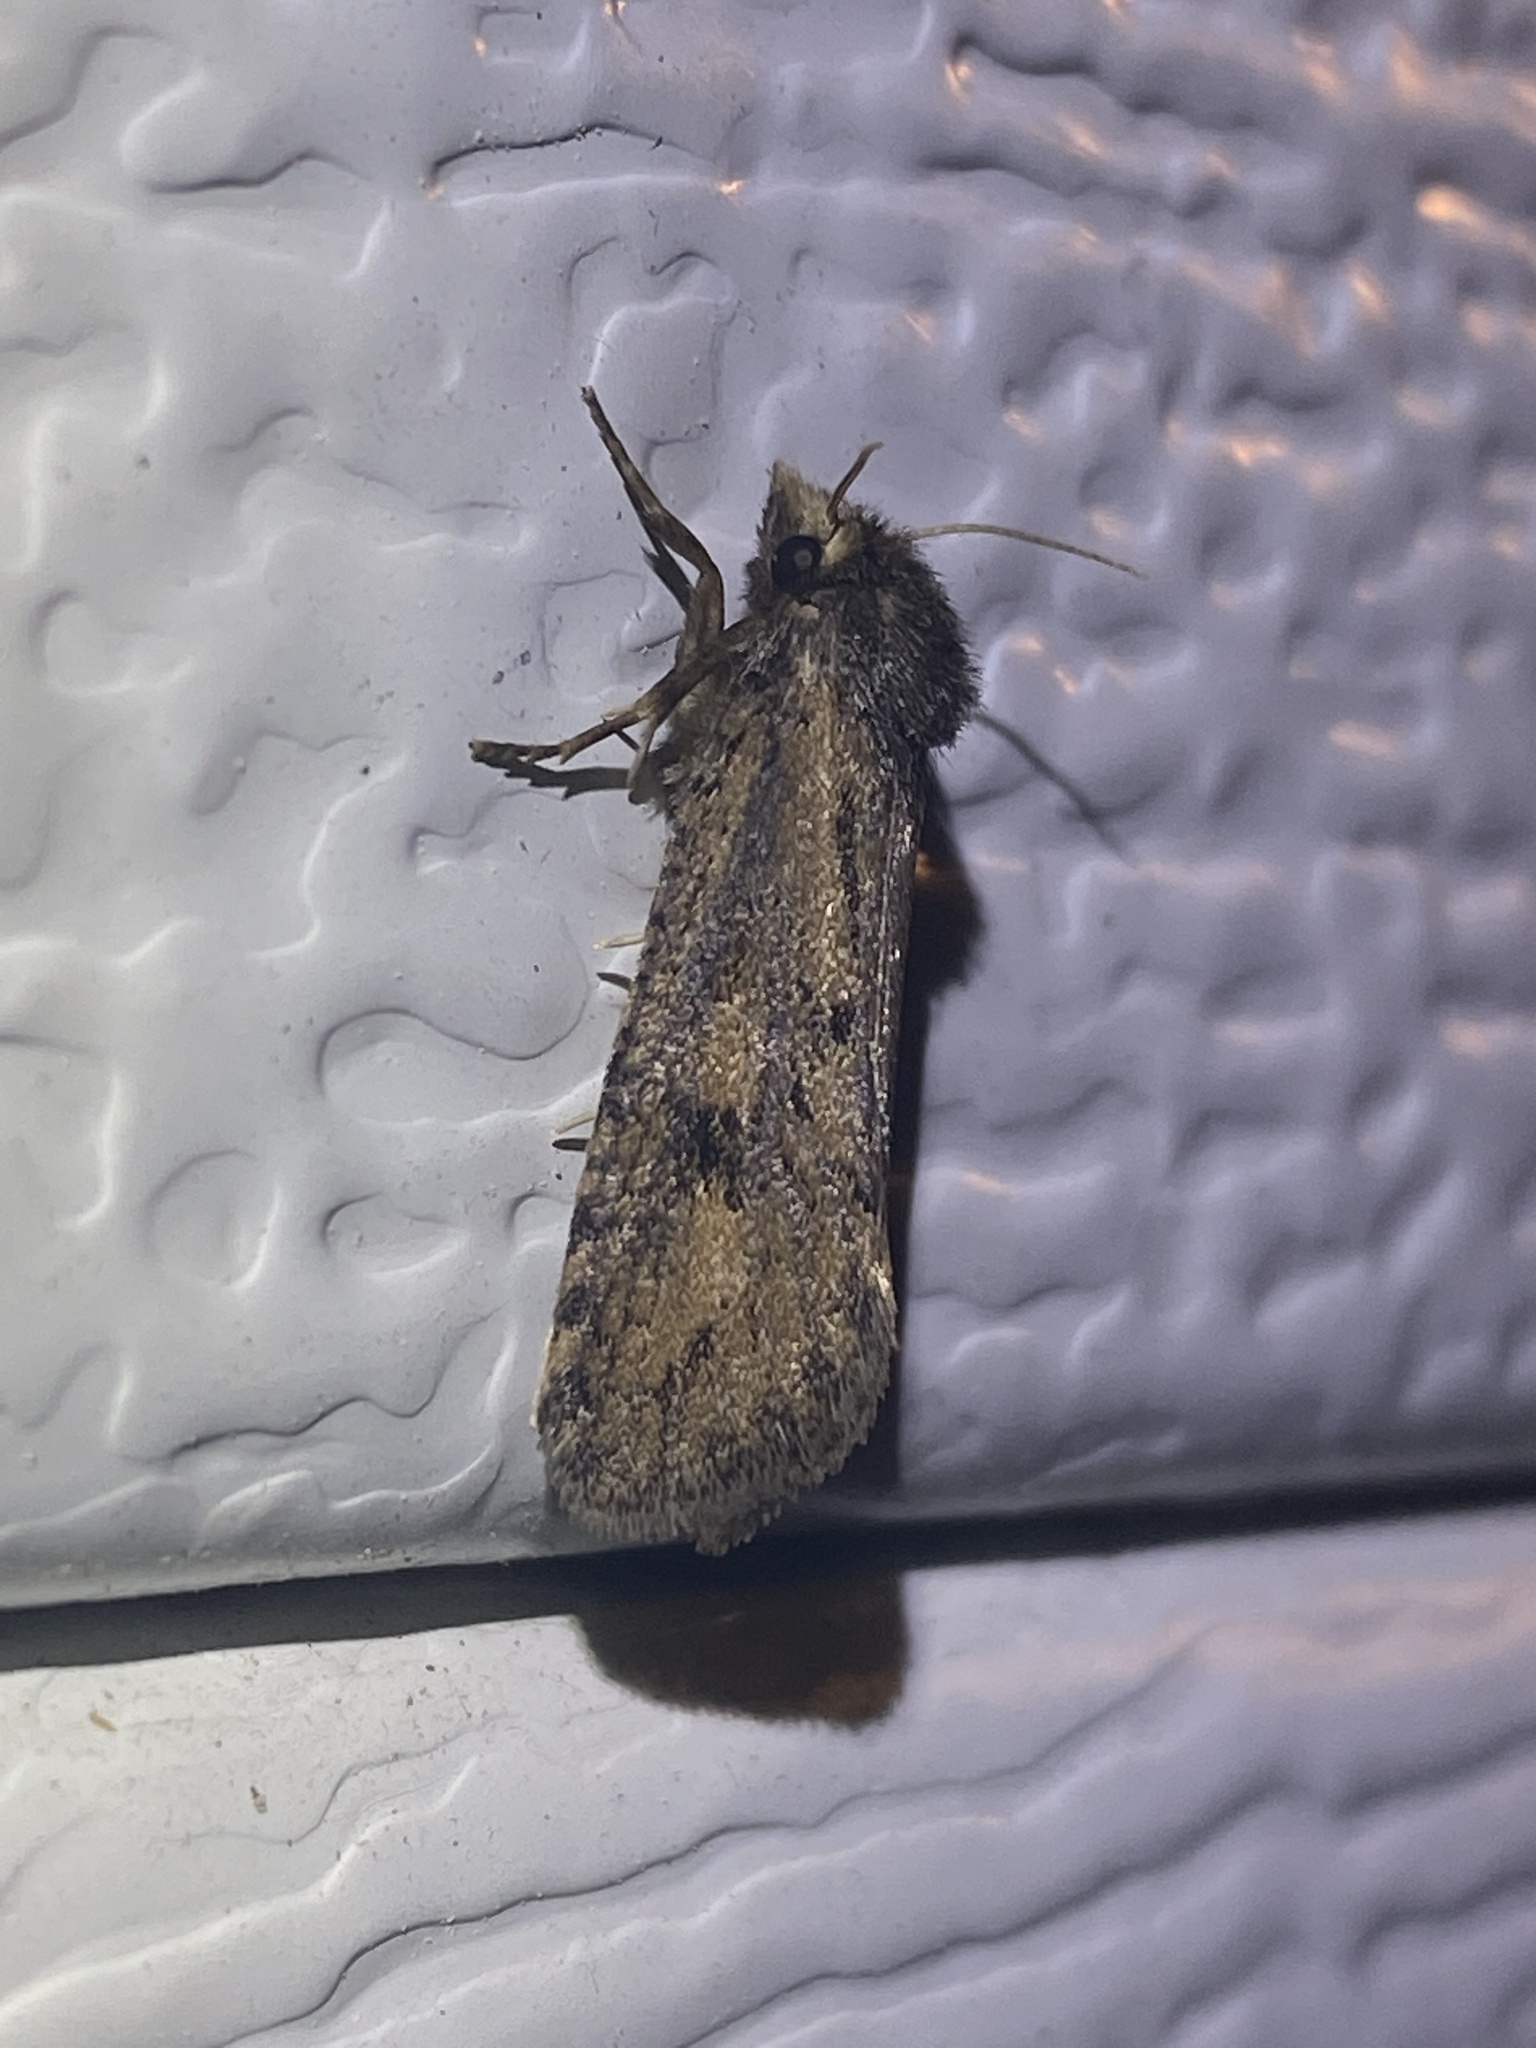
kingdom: Animalia
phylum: Arthropoda
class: Insecta
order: Lepidoptera
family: Tineidae
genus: Acrolophus
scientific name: Acrolophus popeanella
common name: Clemens' grass tubeworm moth
